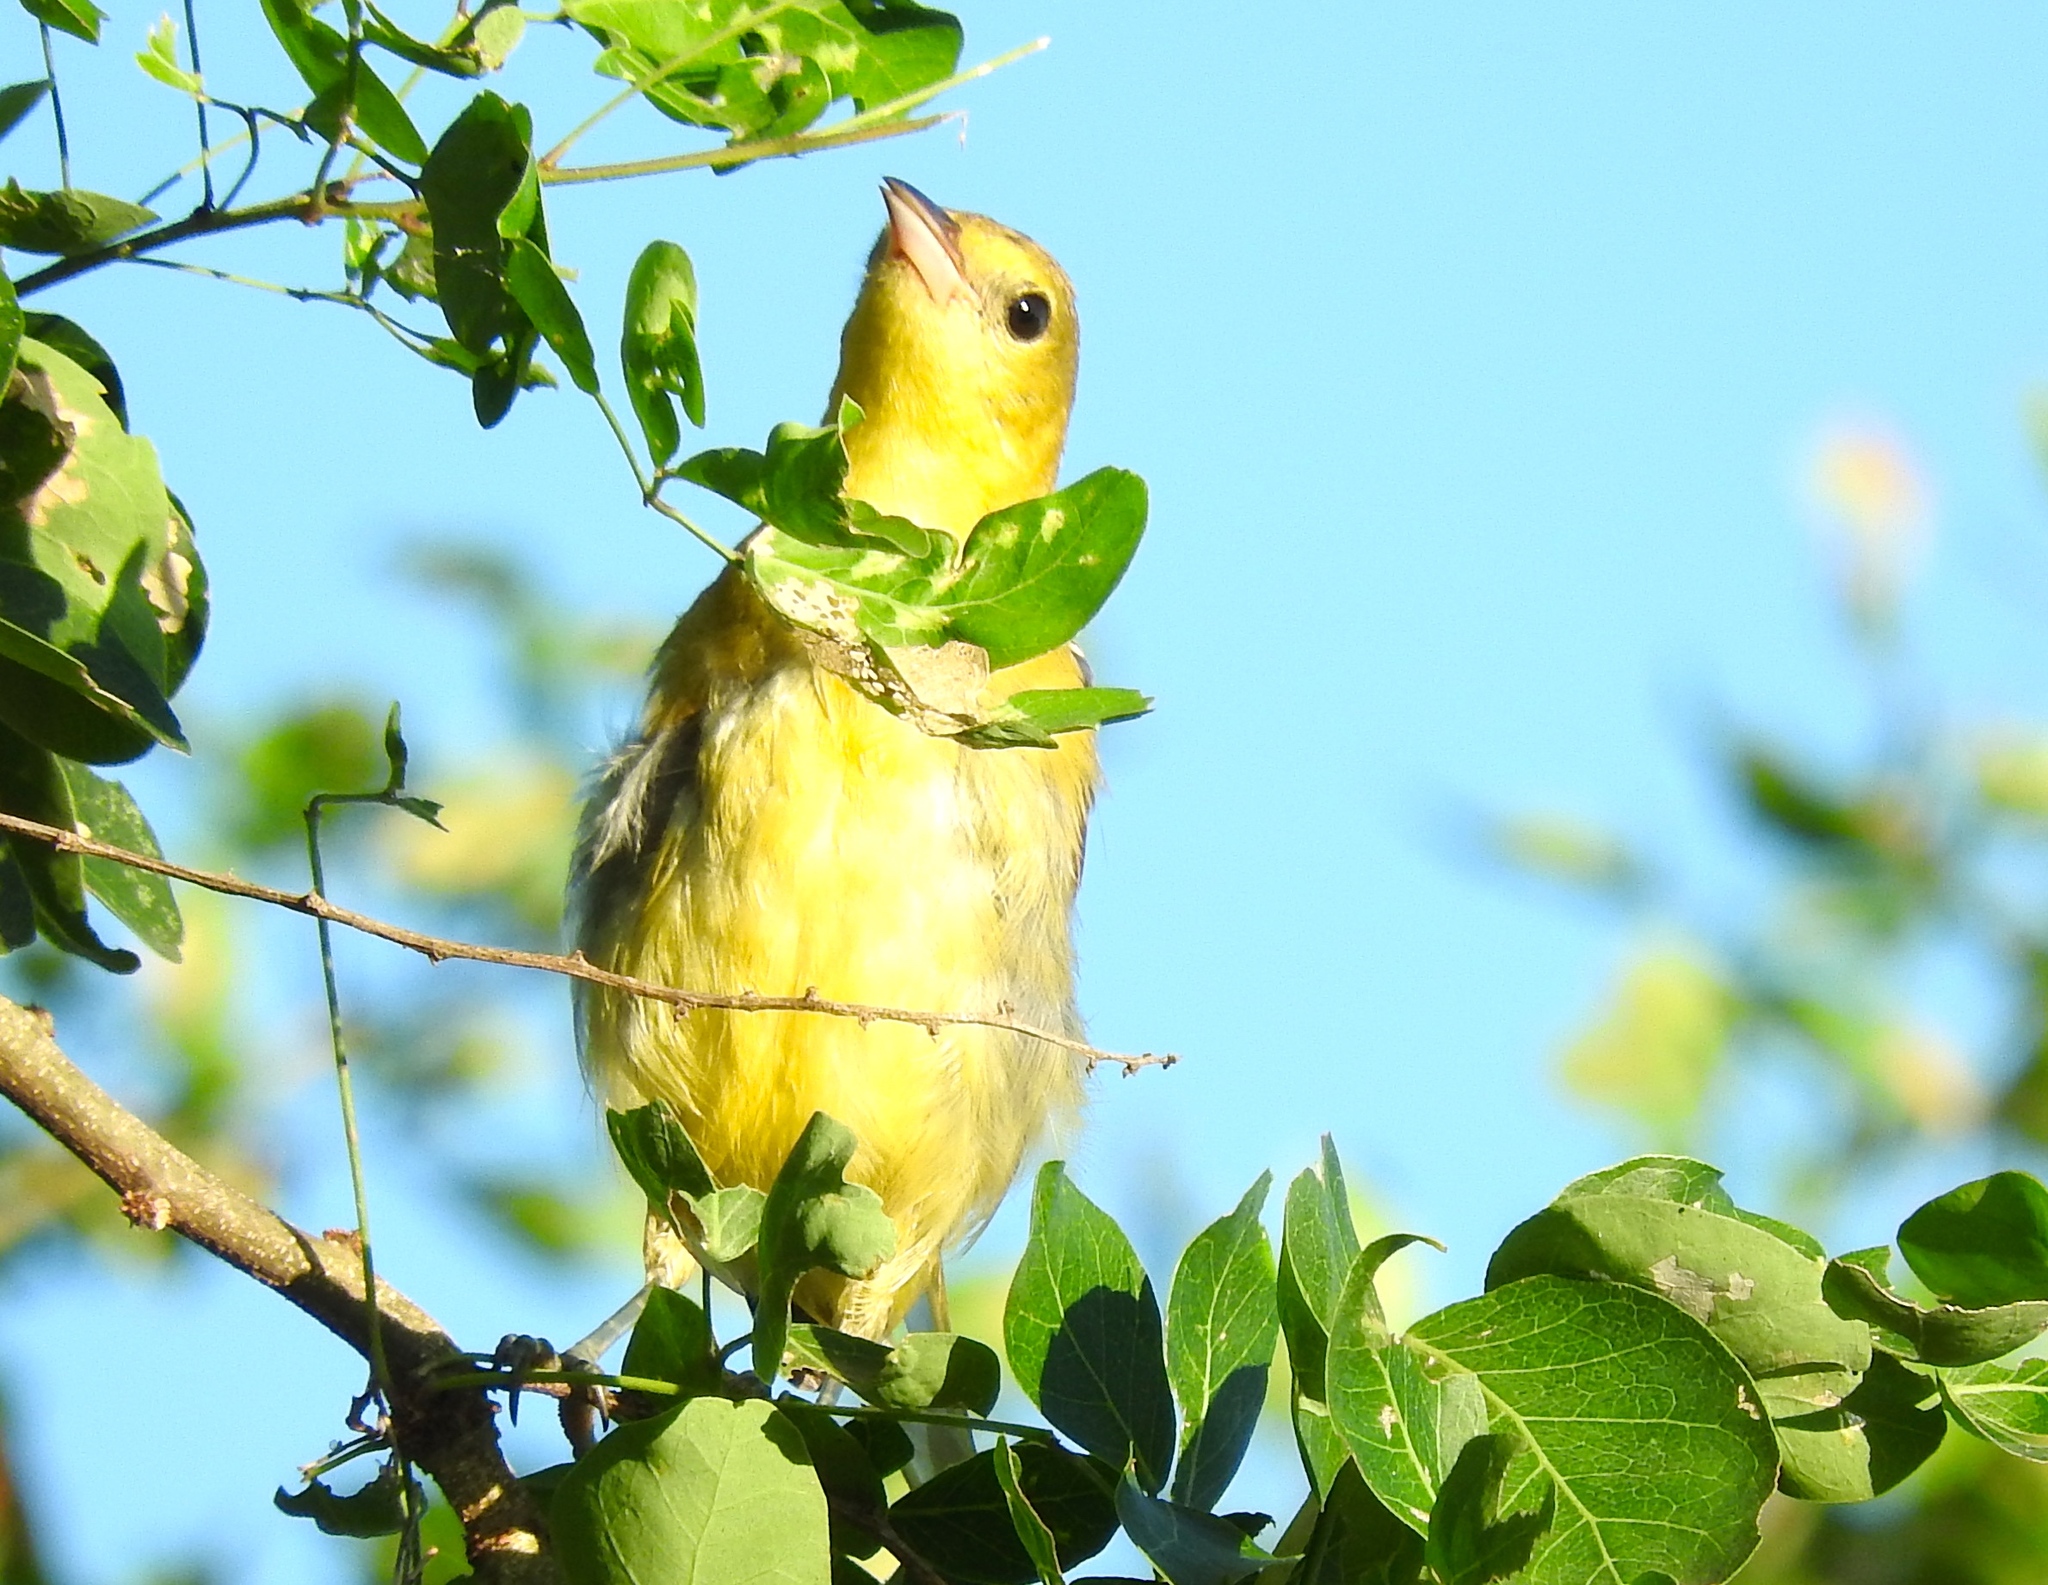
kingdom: Animalia
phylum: Chordata
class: Aves
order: Passeriformes
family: Icteridae
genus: Icterus
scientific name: Icterus
